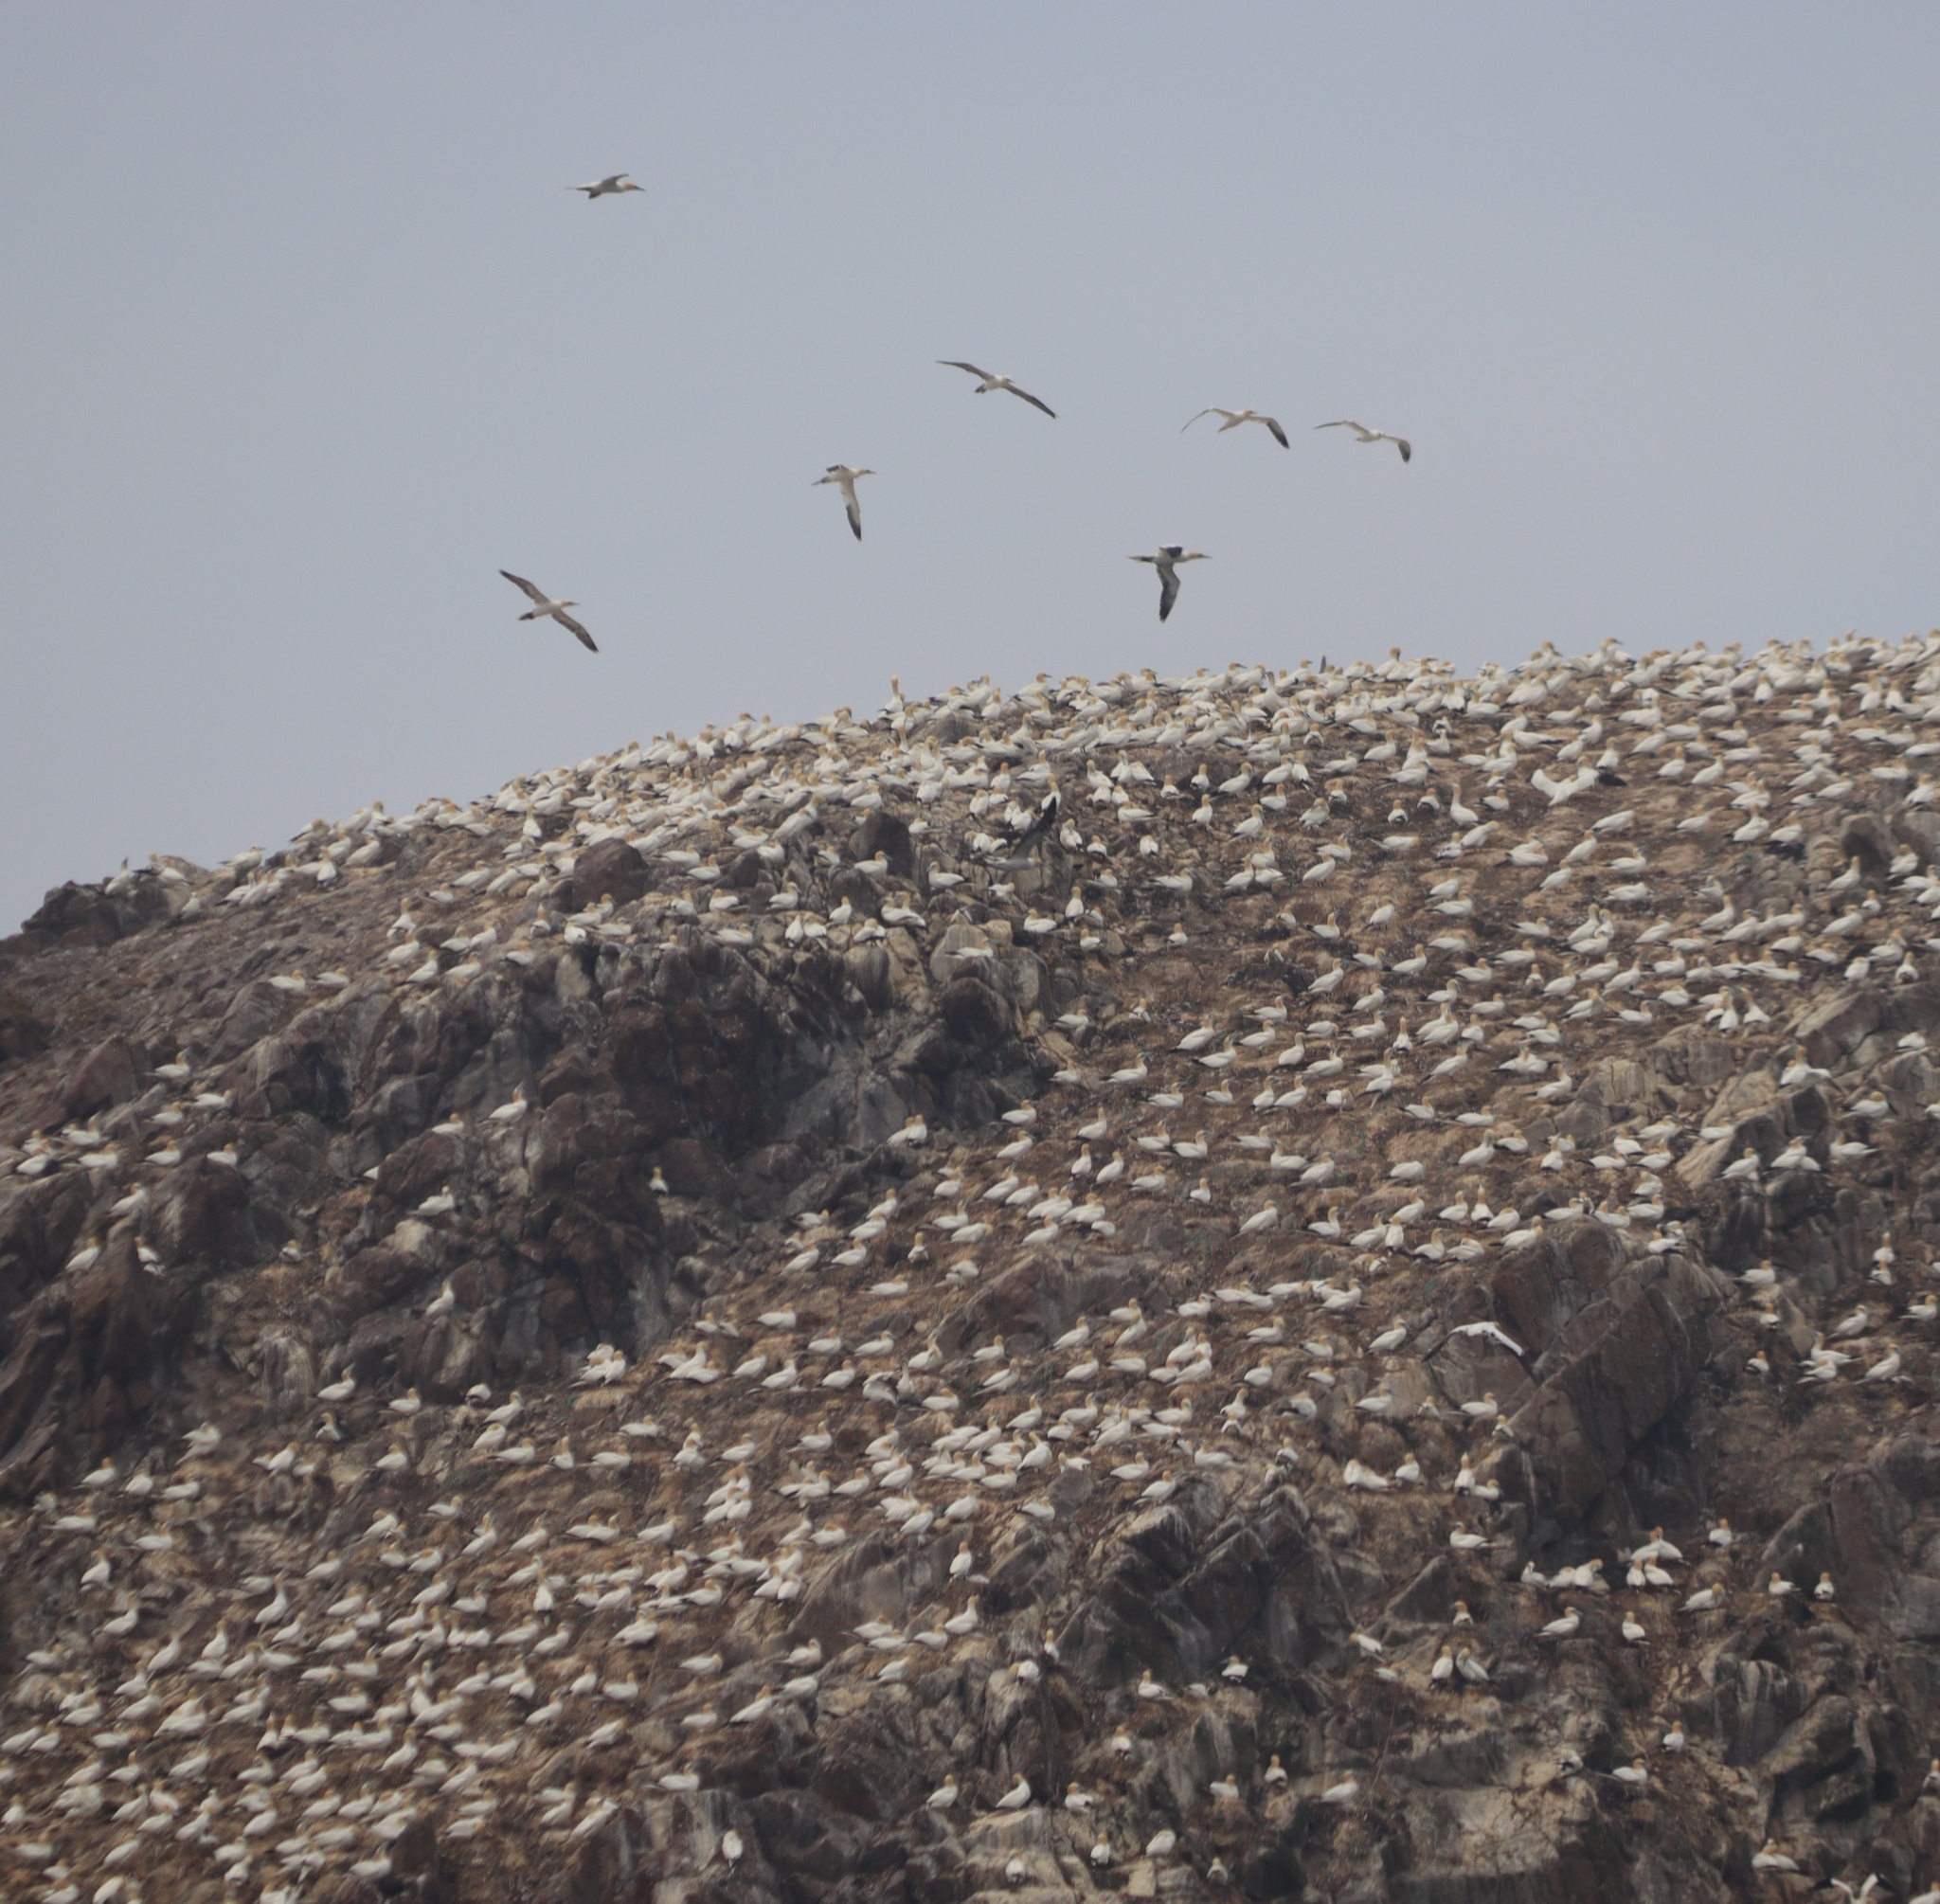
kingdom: Animalia
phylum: Chordata
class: Aves
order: Suliformes
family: Sulidae
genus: Morus
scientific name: Morus bassanus
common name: Northern gannet
